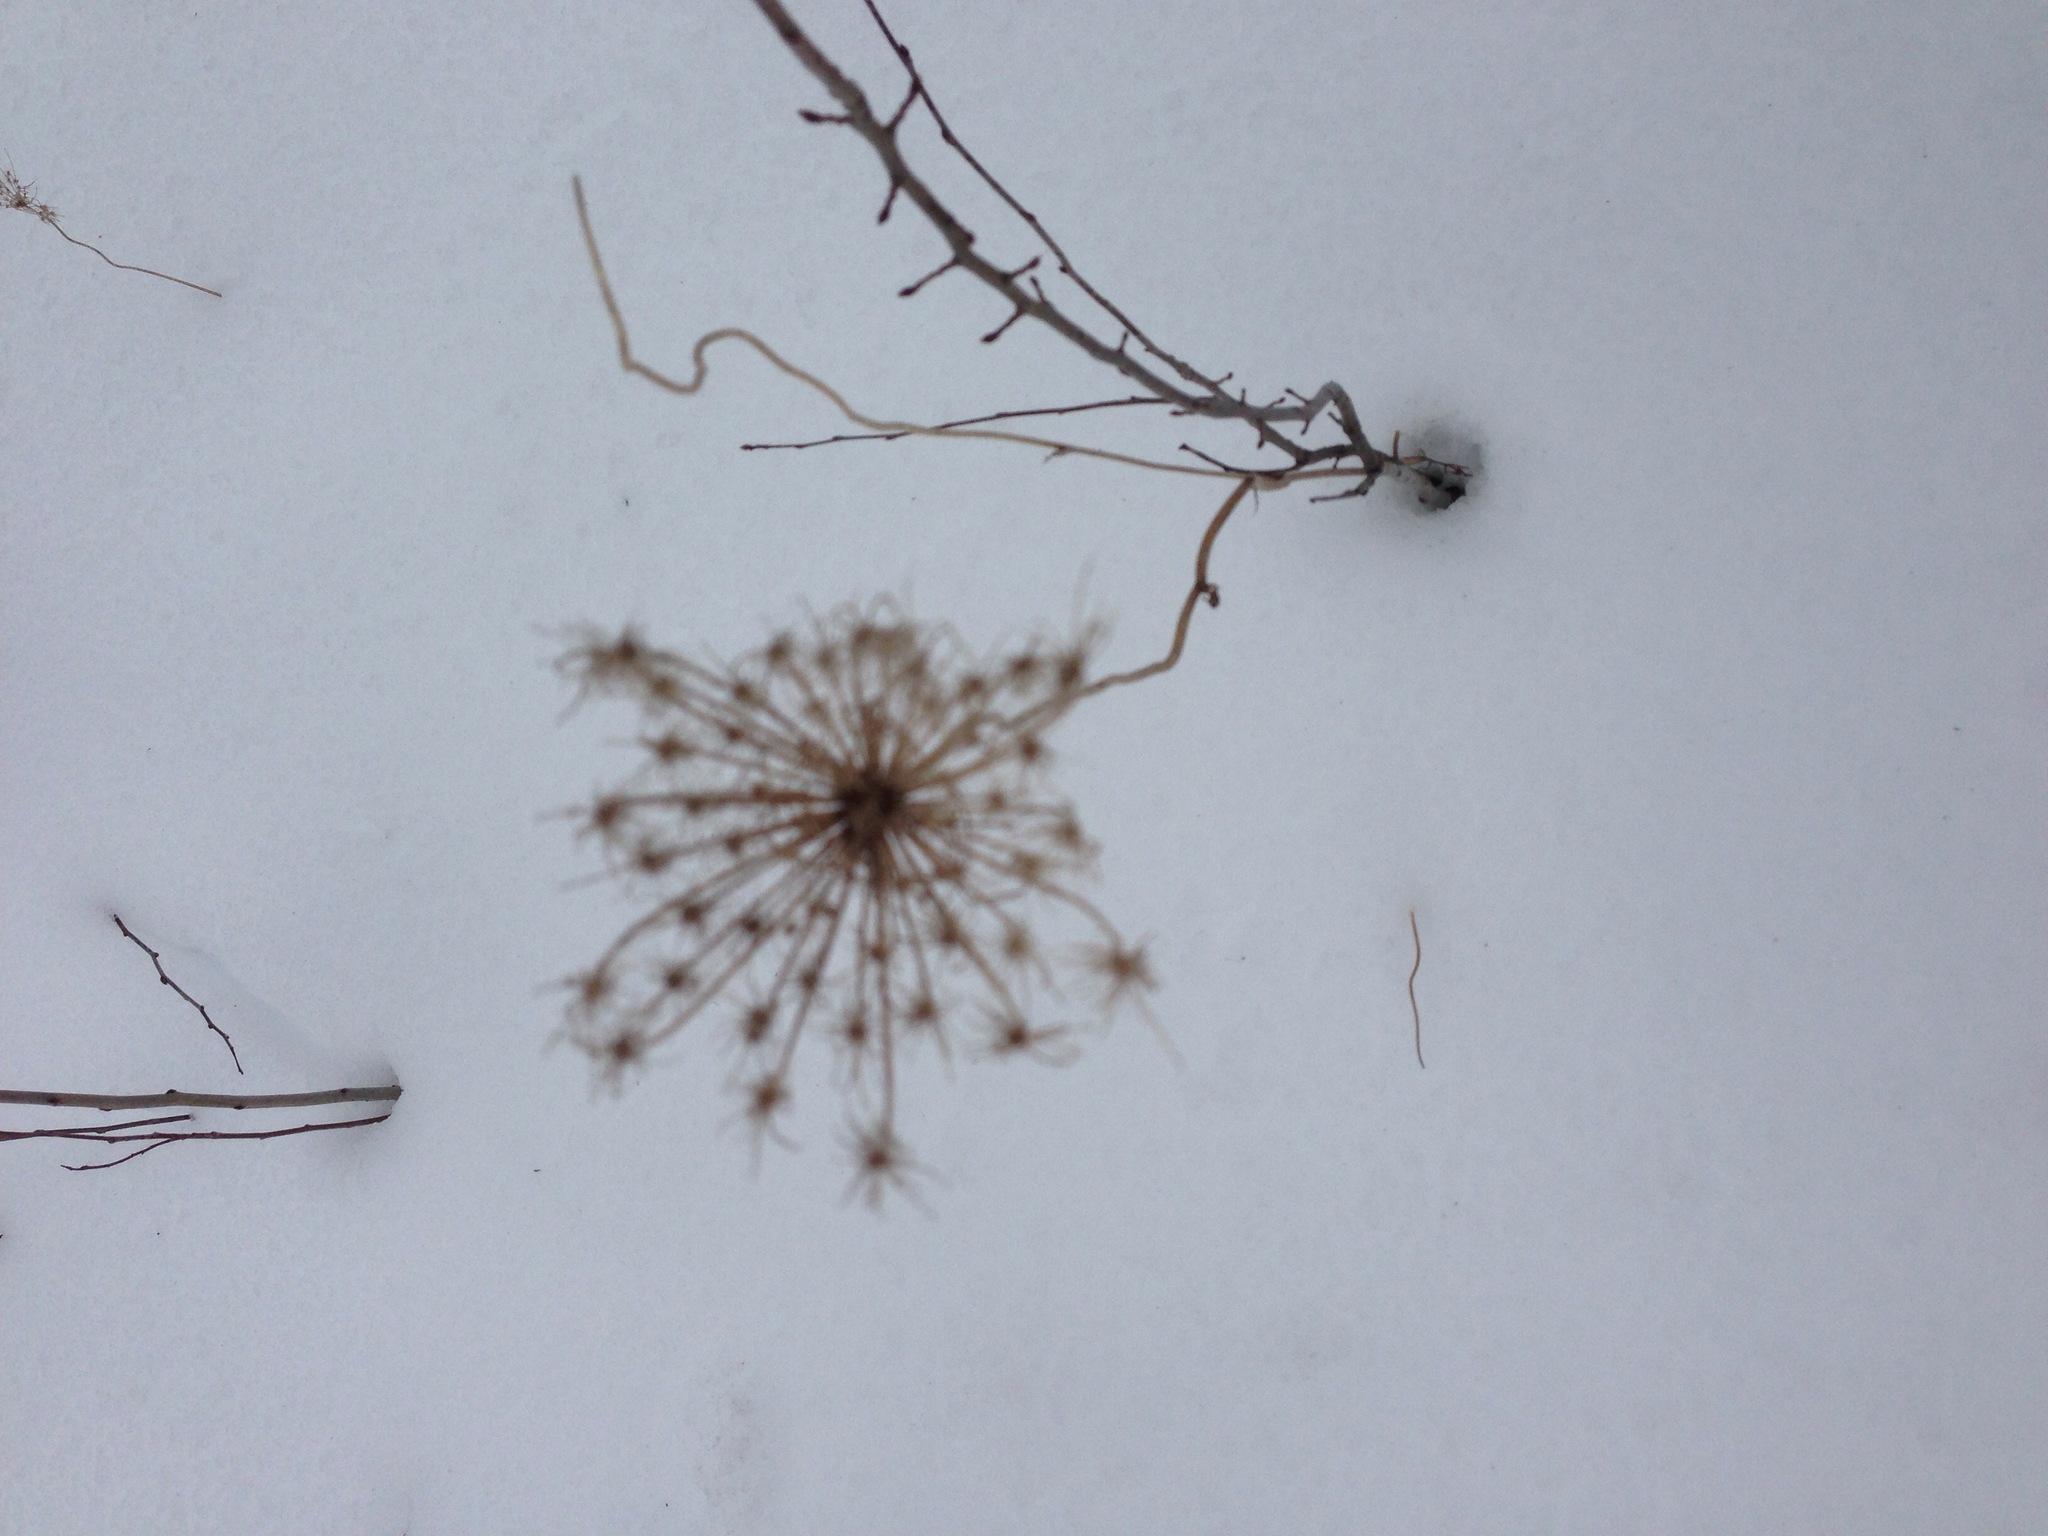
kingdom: Plantae
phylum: Tracheophyta
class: Magnoliopsida
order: Apiales
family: Apiaceae
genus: Daucus
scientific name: Daucus carota
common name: Wild carrot
